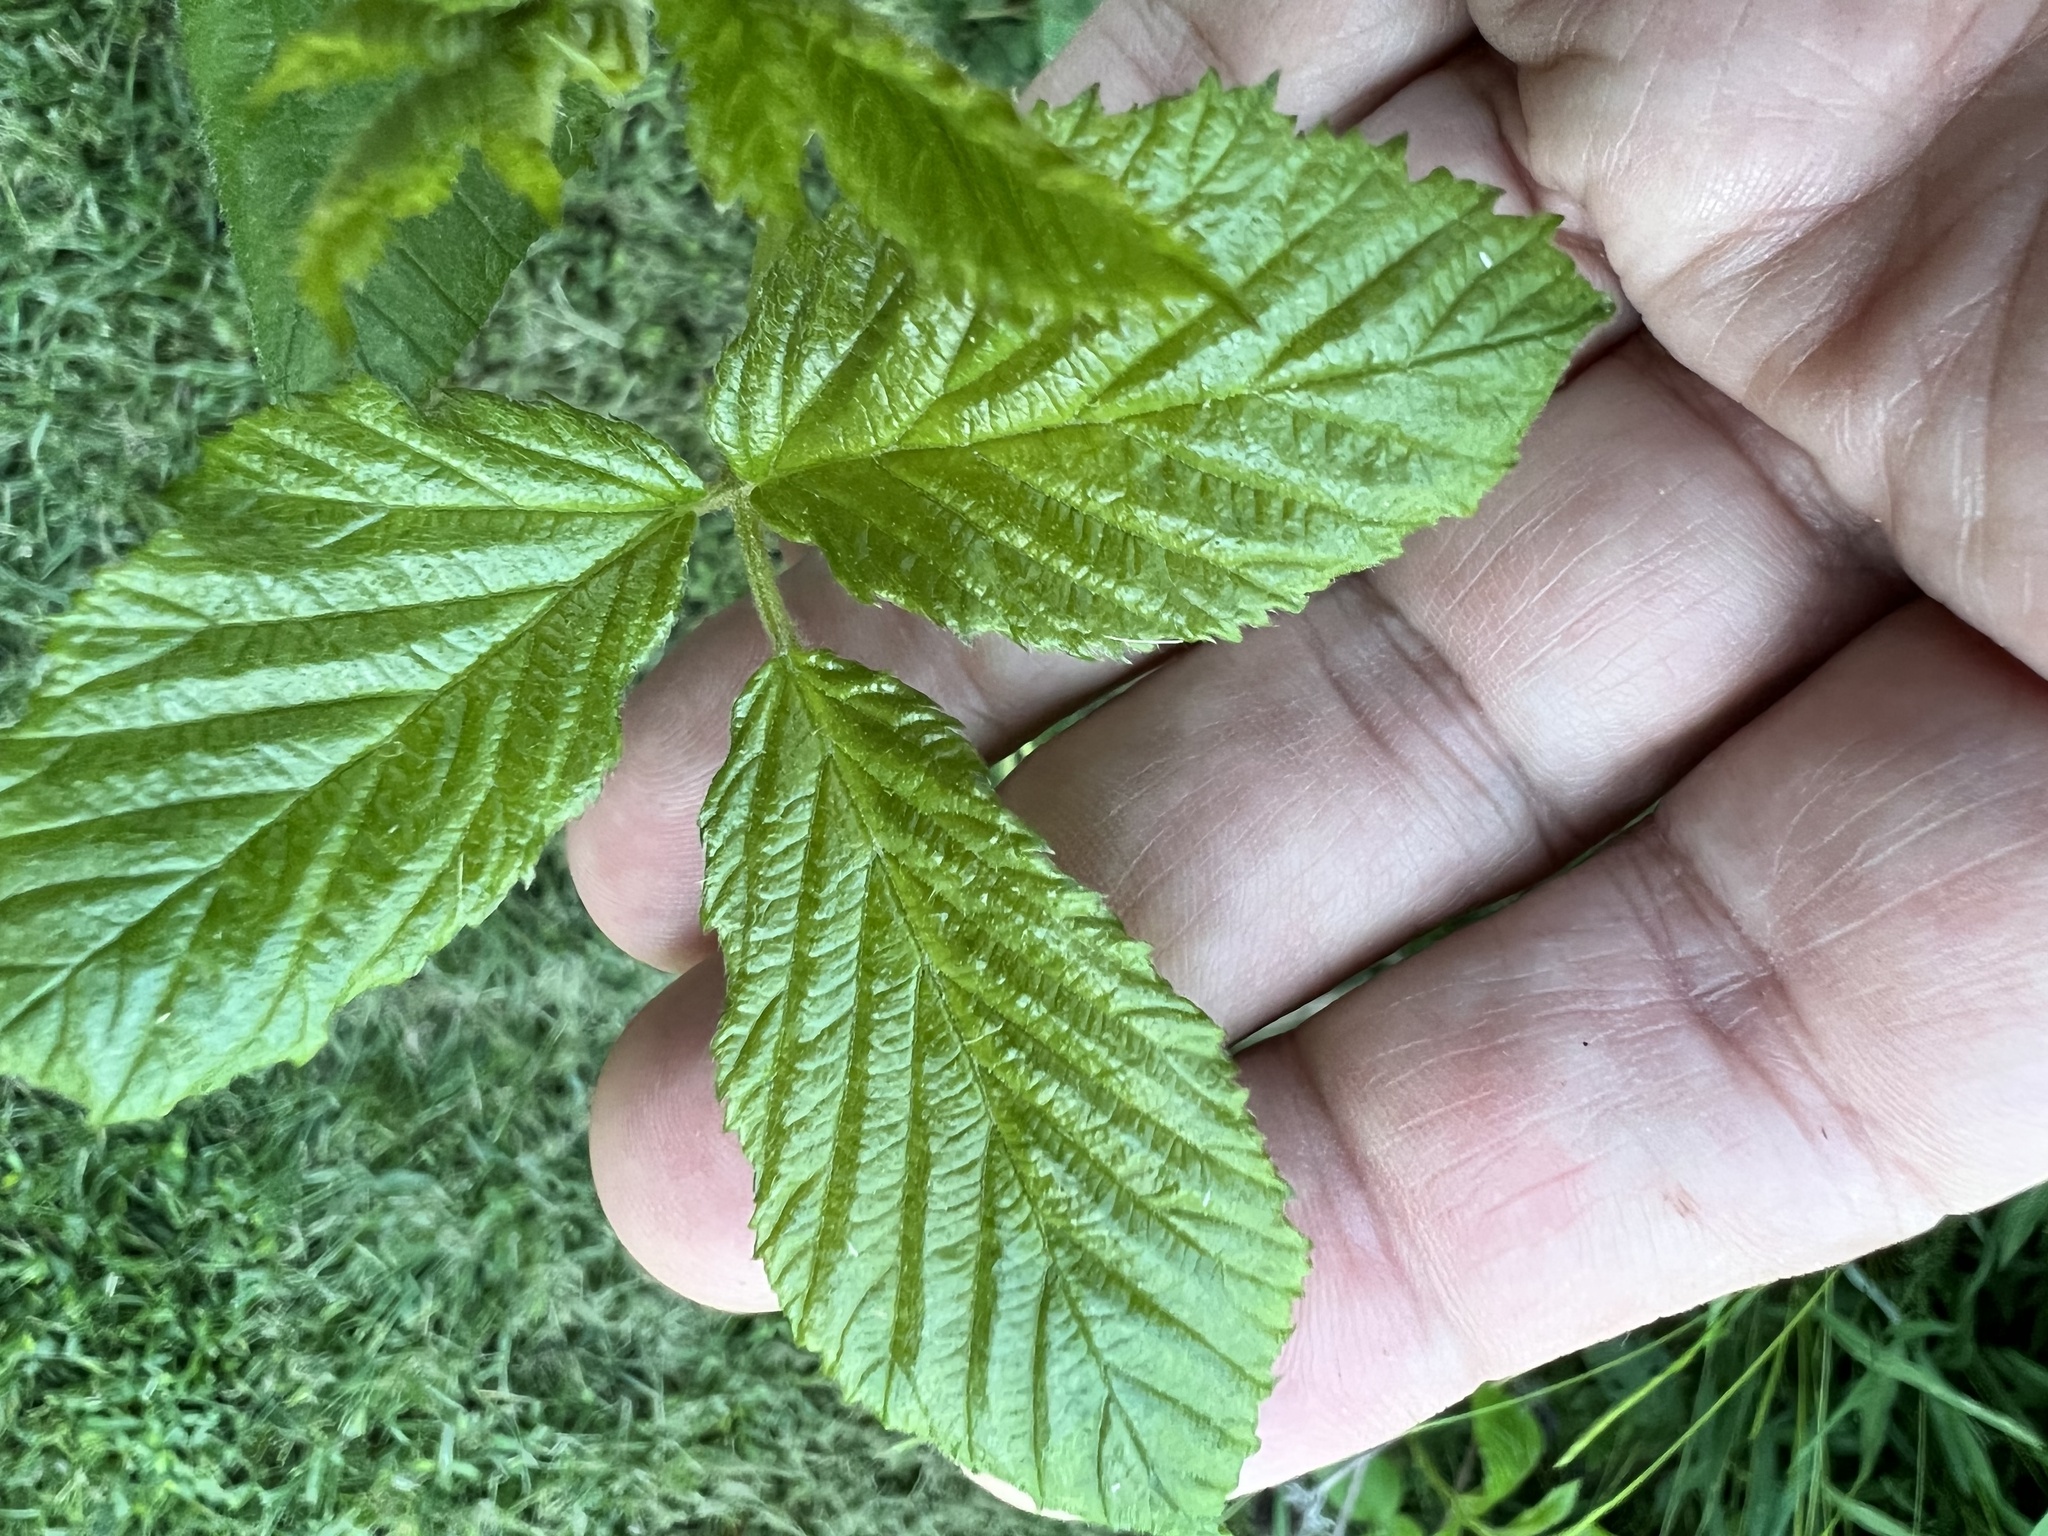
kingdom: Fungi
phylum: Basidiomycota
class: Pucciniomycetes
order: Pucciniales
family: Phragmidiaceae
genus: Kuehneola
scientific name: Kuehneola uredinis
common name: Bramble stem rust
